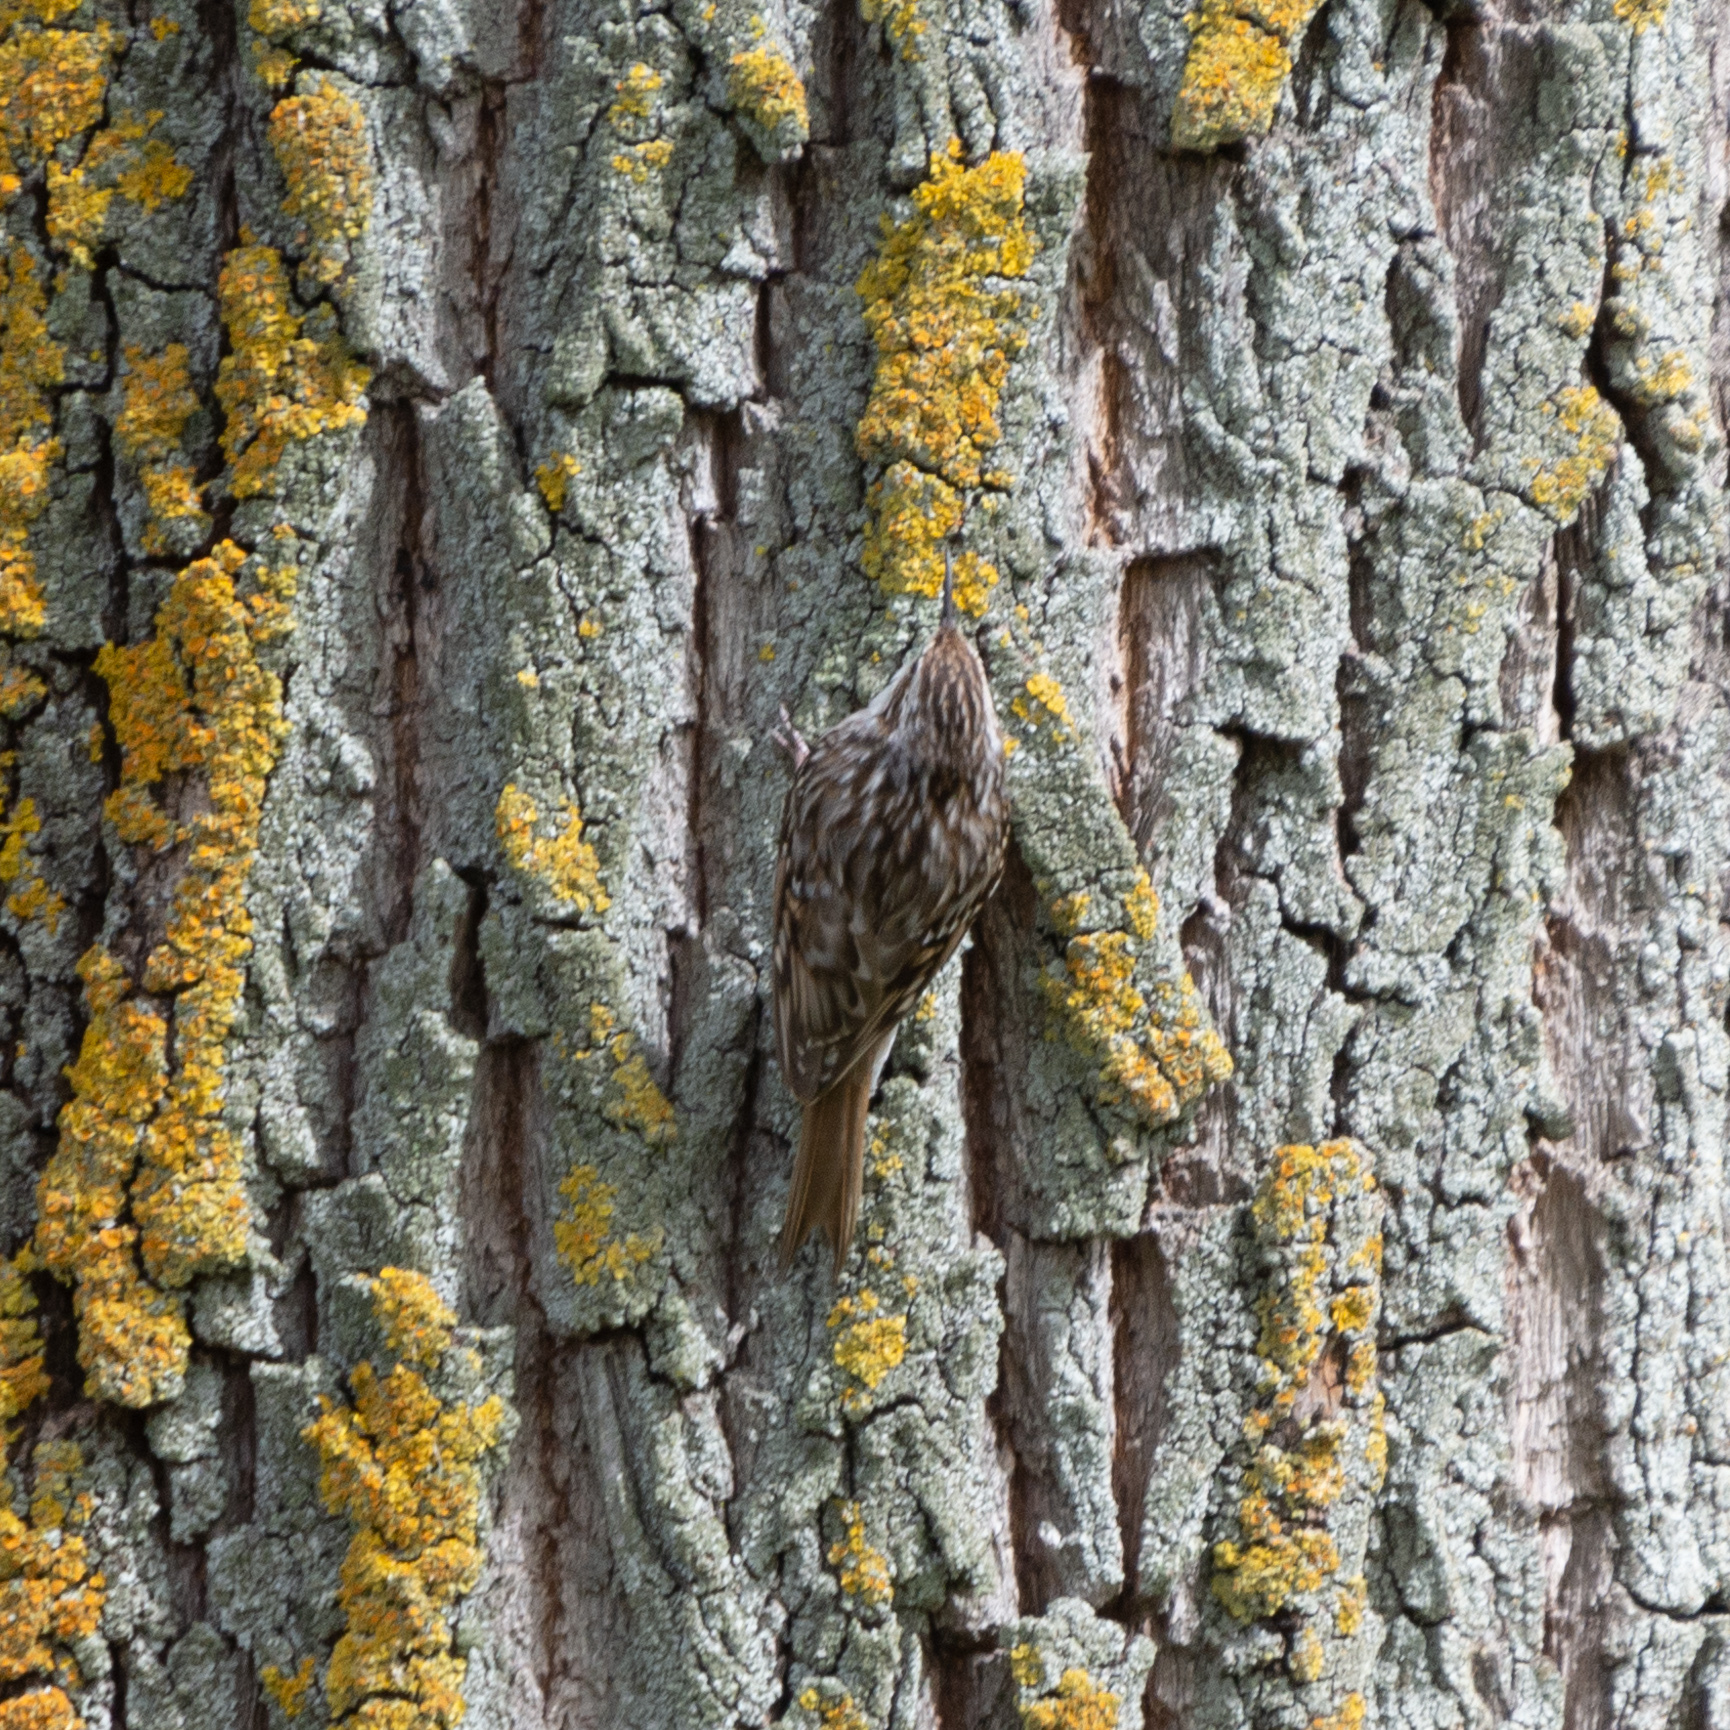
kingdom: Animalia
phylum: Chordata
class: Aves
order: Passeriformes
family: Certhiidae
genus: Certhia
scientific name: Certhia brachydactyla
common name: Short-toed treecreeper
